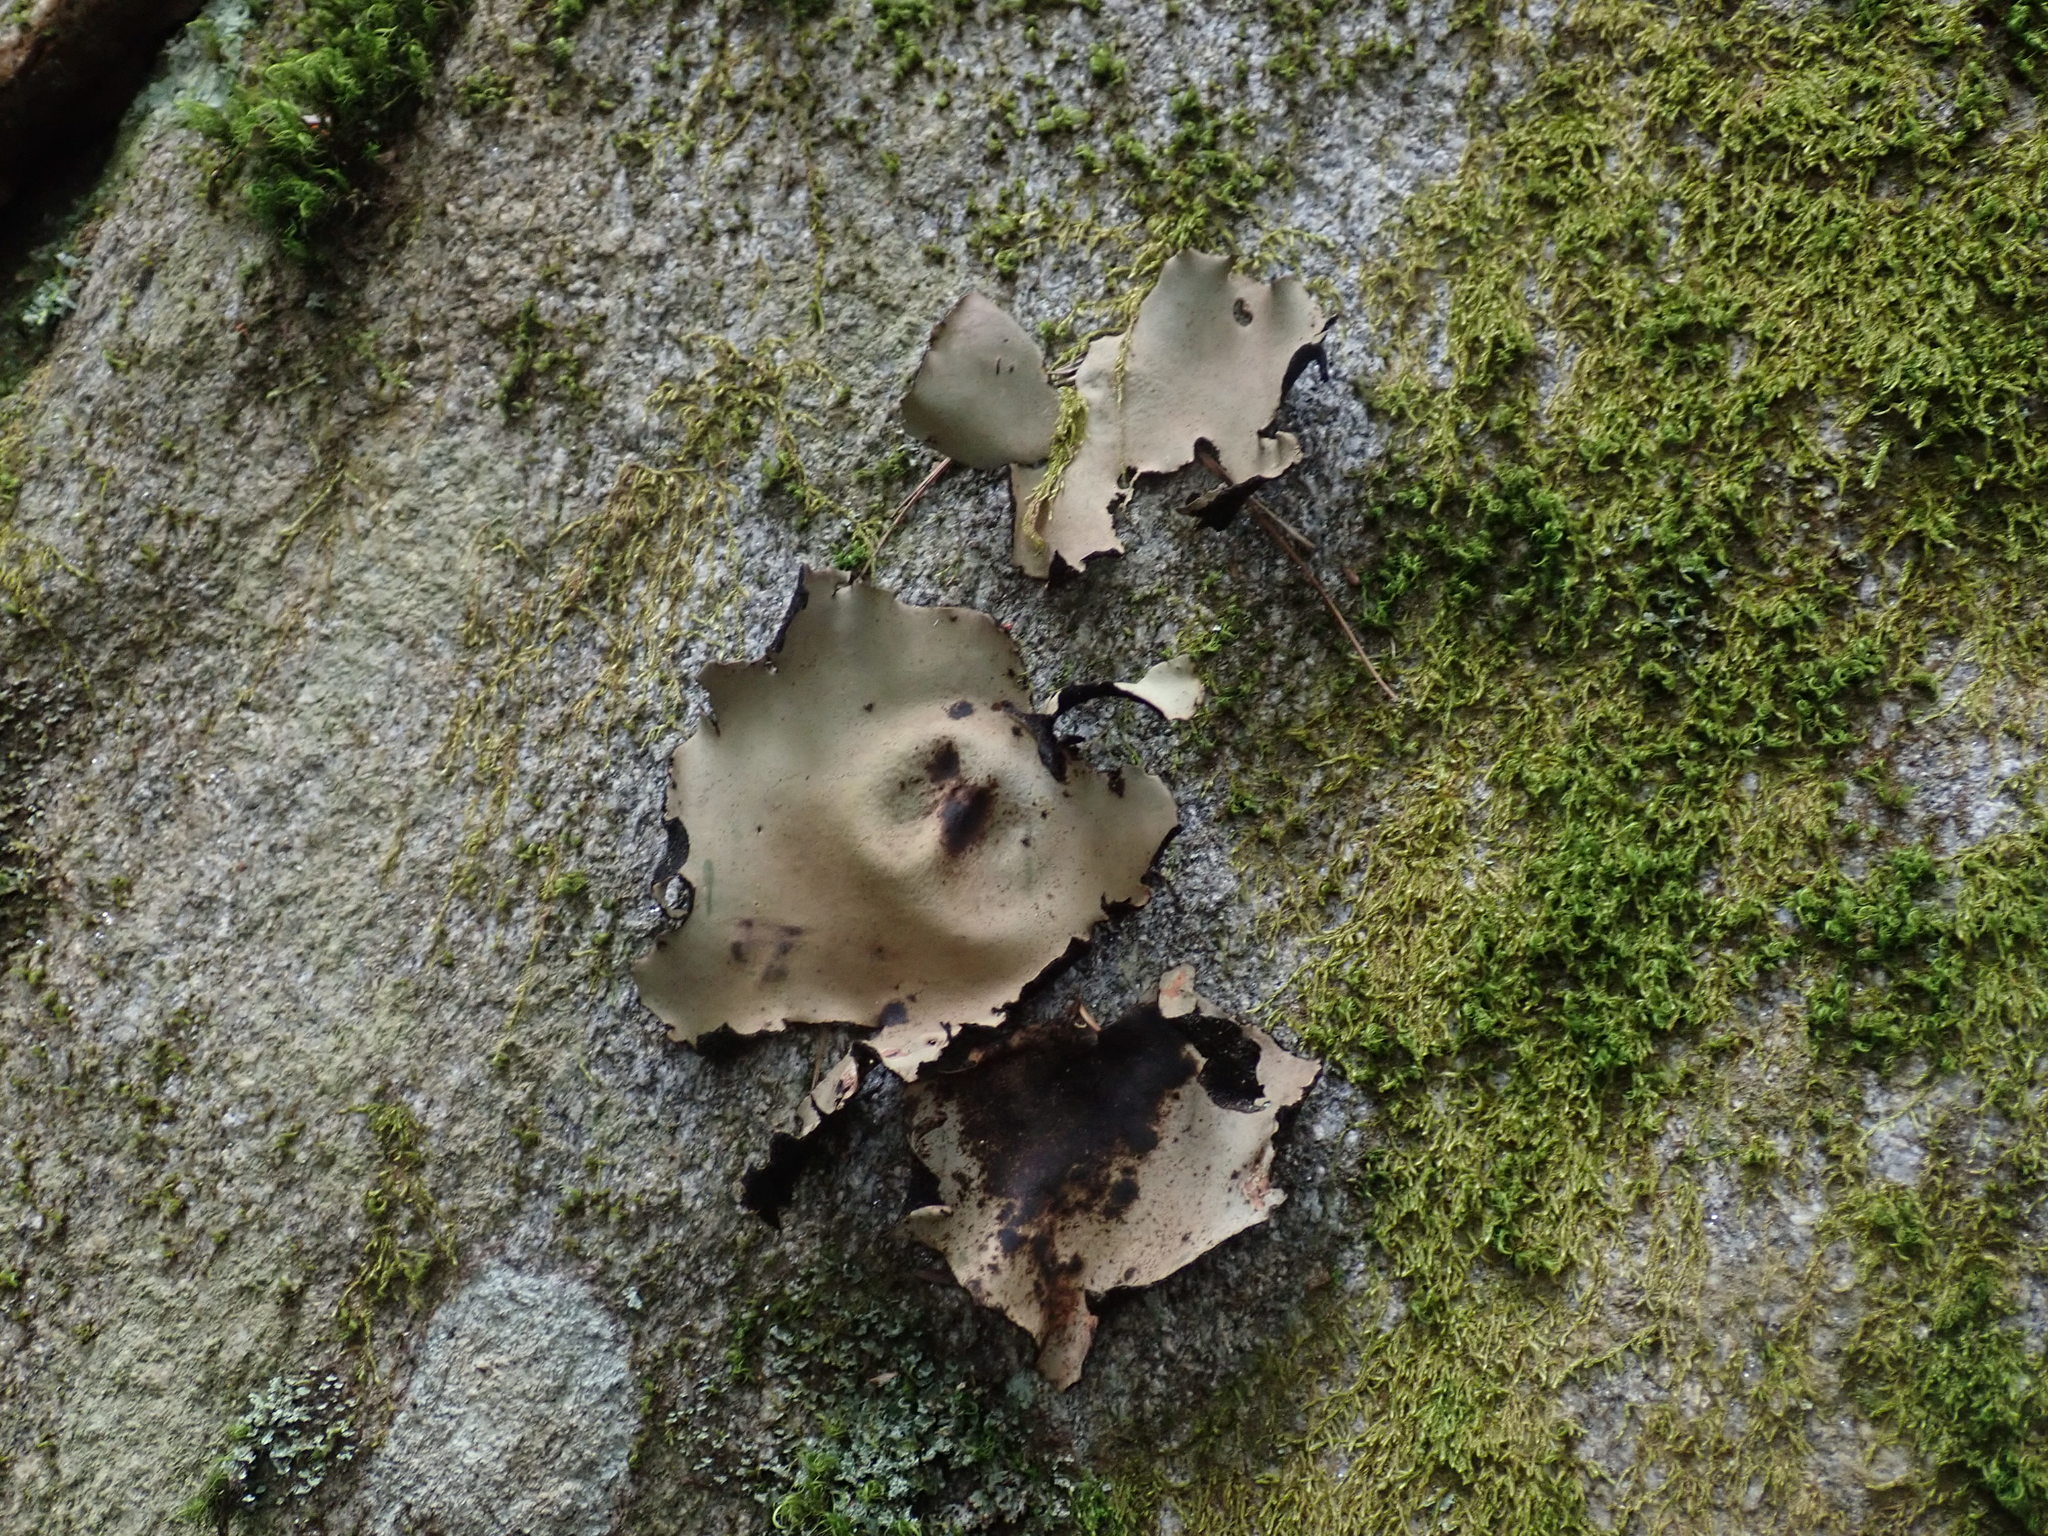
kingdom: Fungi
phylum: Ascomycota
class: Lecanoromycetes
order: Umbilicariales
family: Umbilicariaceae
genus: Umbilicaria
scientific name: Umbilicaria mammulata
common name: Smooth rock tripe
